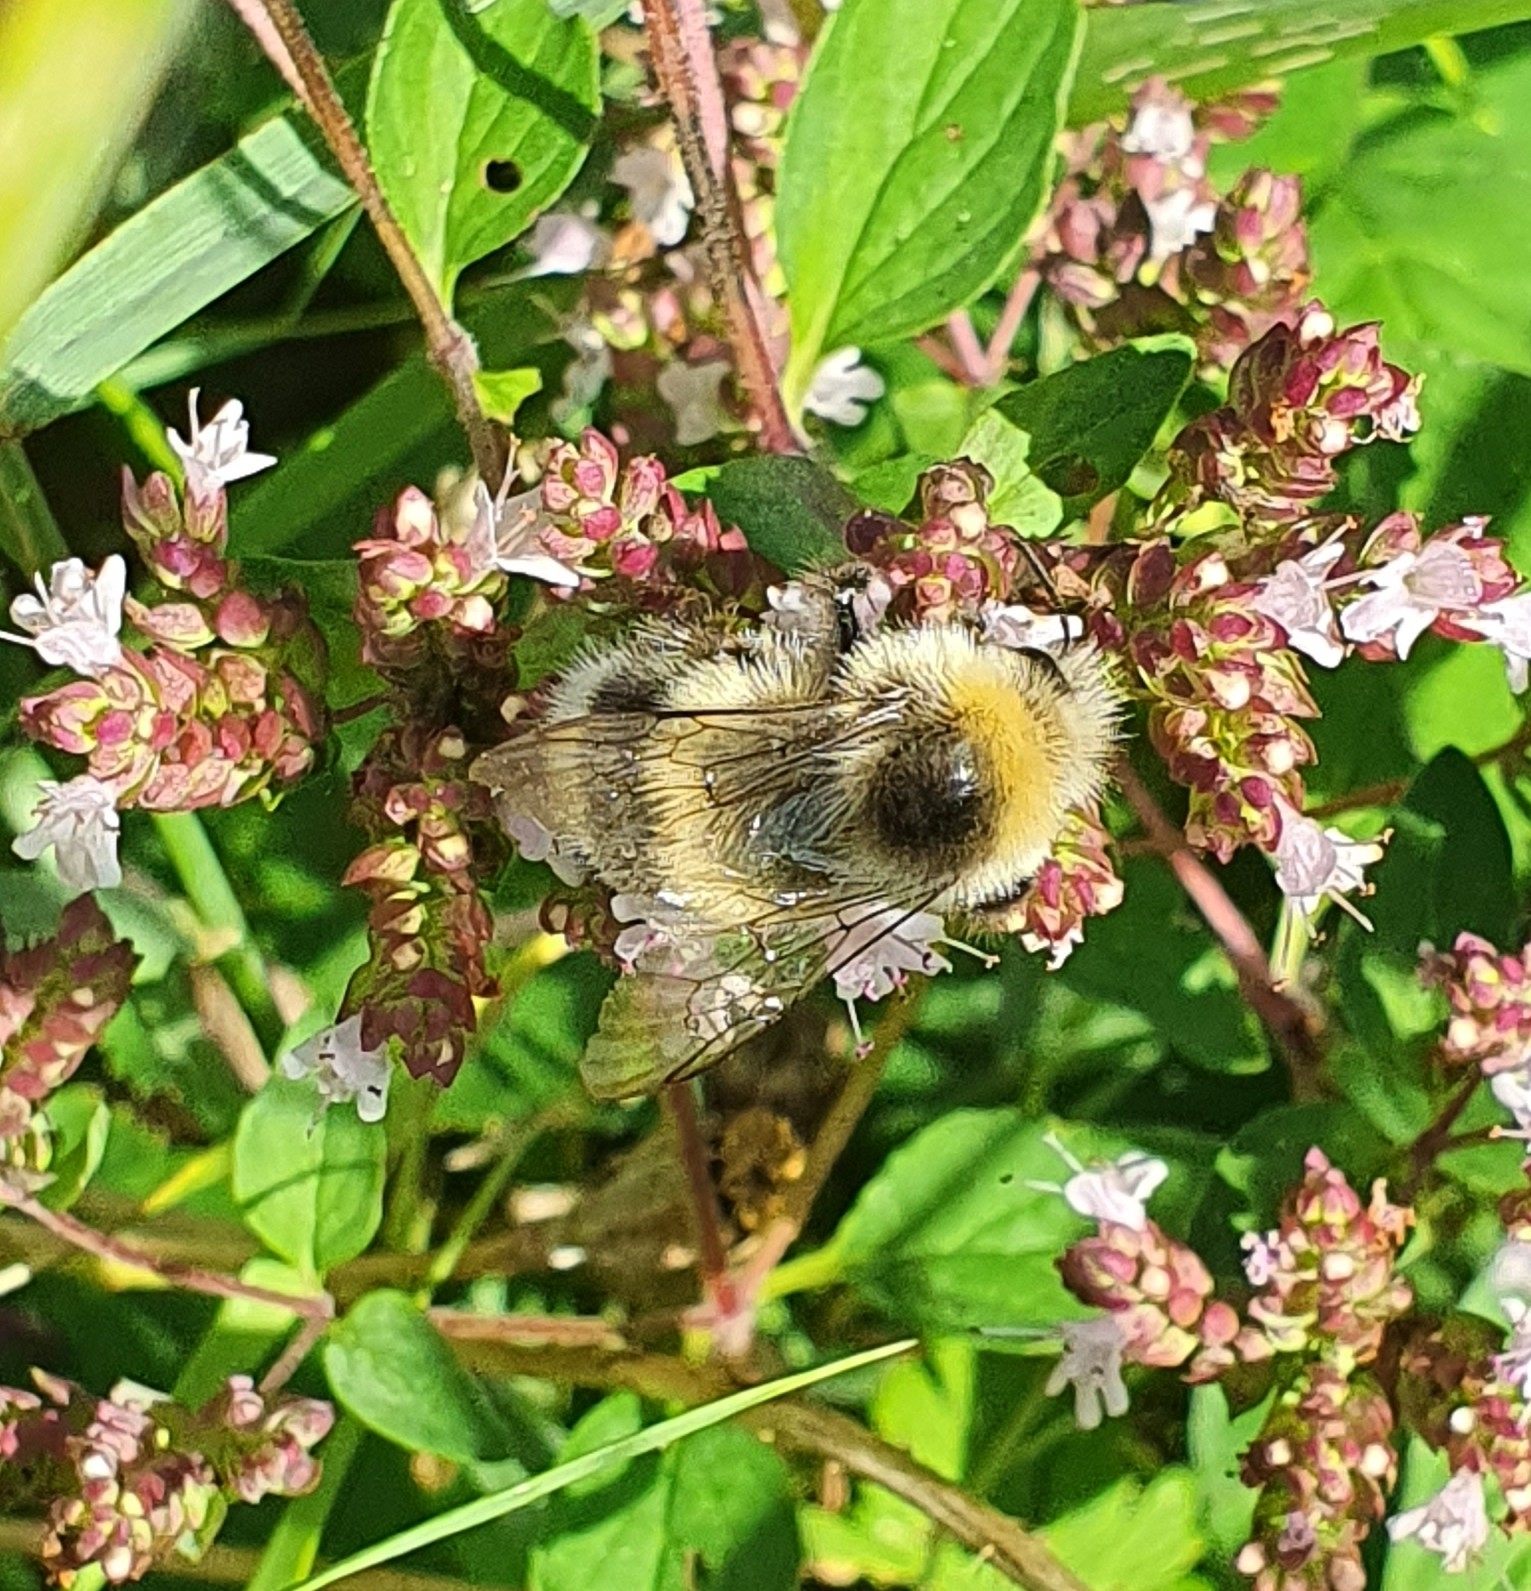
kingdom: Animalia
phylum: Arthropoda
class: Insecta
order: Hymenoptera
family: Apidae
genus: Bombus
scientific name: Bombus lucorum
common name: White-tailed bumblebee
